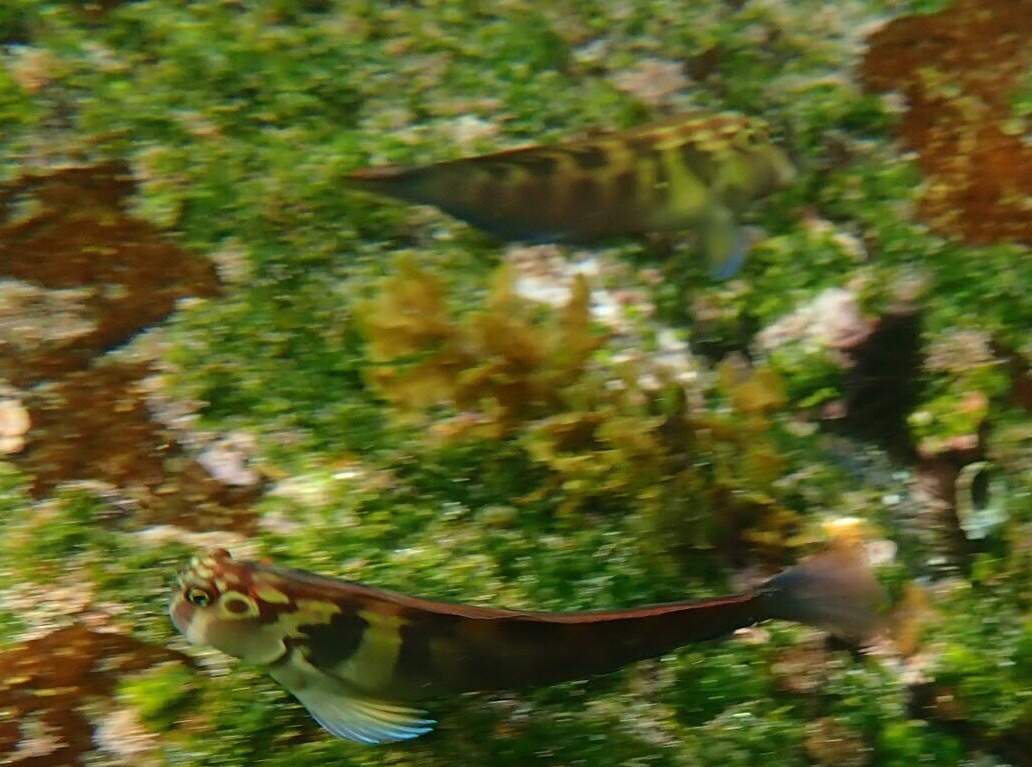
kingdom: Animalia
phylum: Chordata
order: Perciformes
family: Blenniidae
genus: Ophioblennius
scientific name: Ophioblennius steindachneri
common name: Panamic fanged blenny
